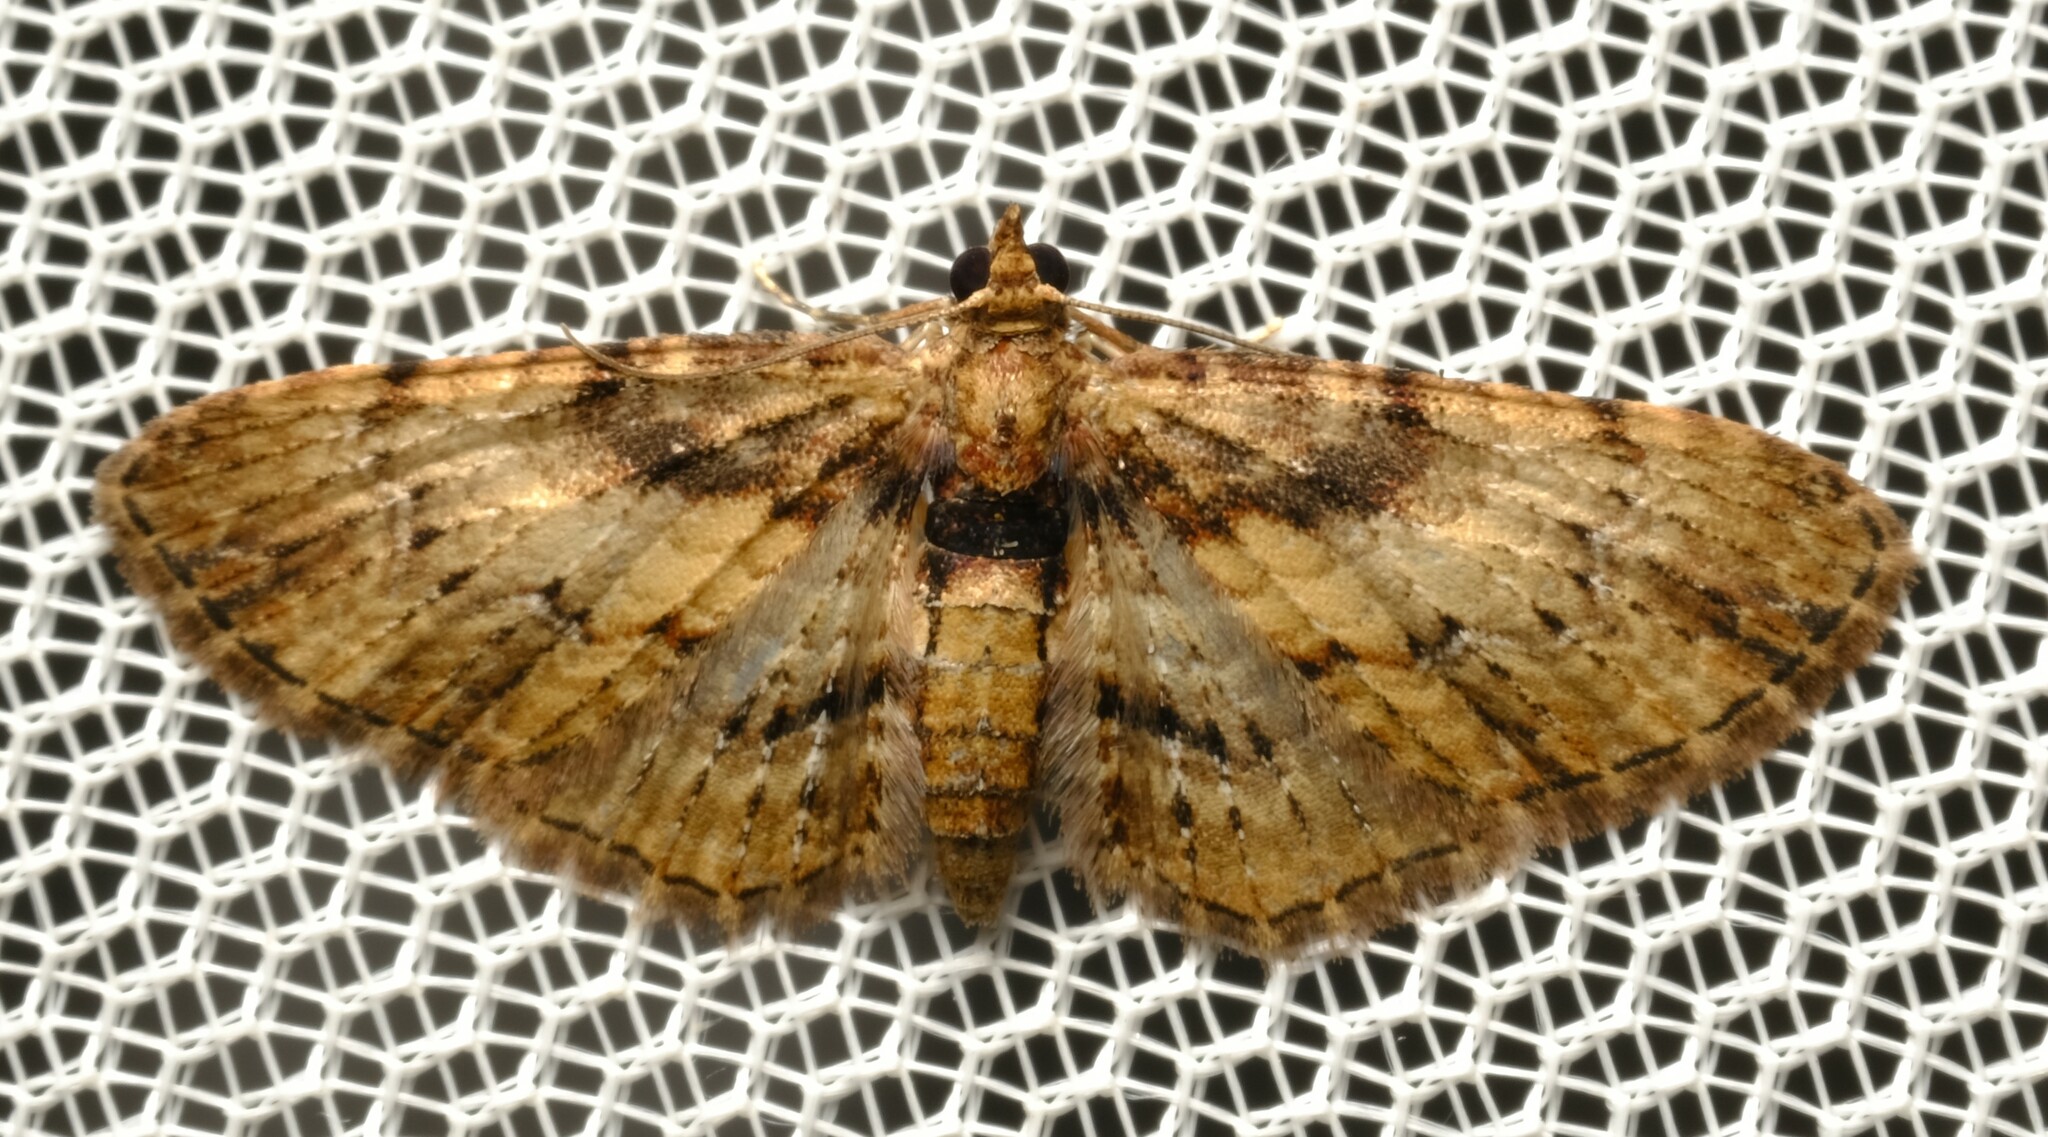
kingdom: Animalia
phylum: Arthropoda
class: Insecta
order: Lepidoptera
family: Geometridae
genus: Chloroclystis
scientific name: Chloroclystis approximata
